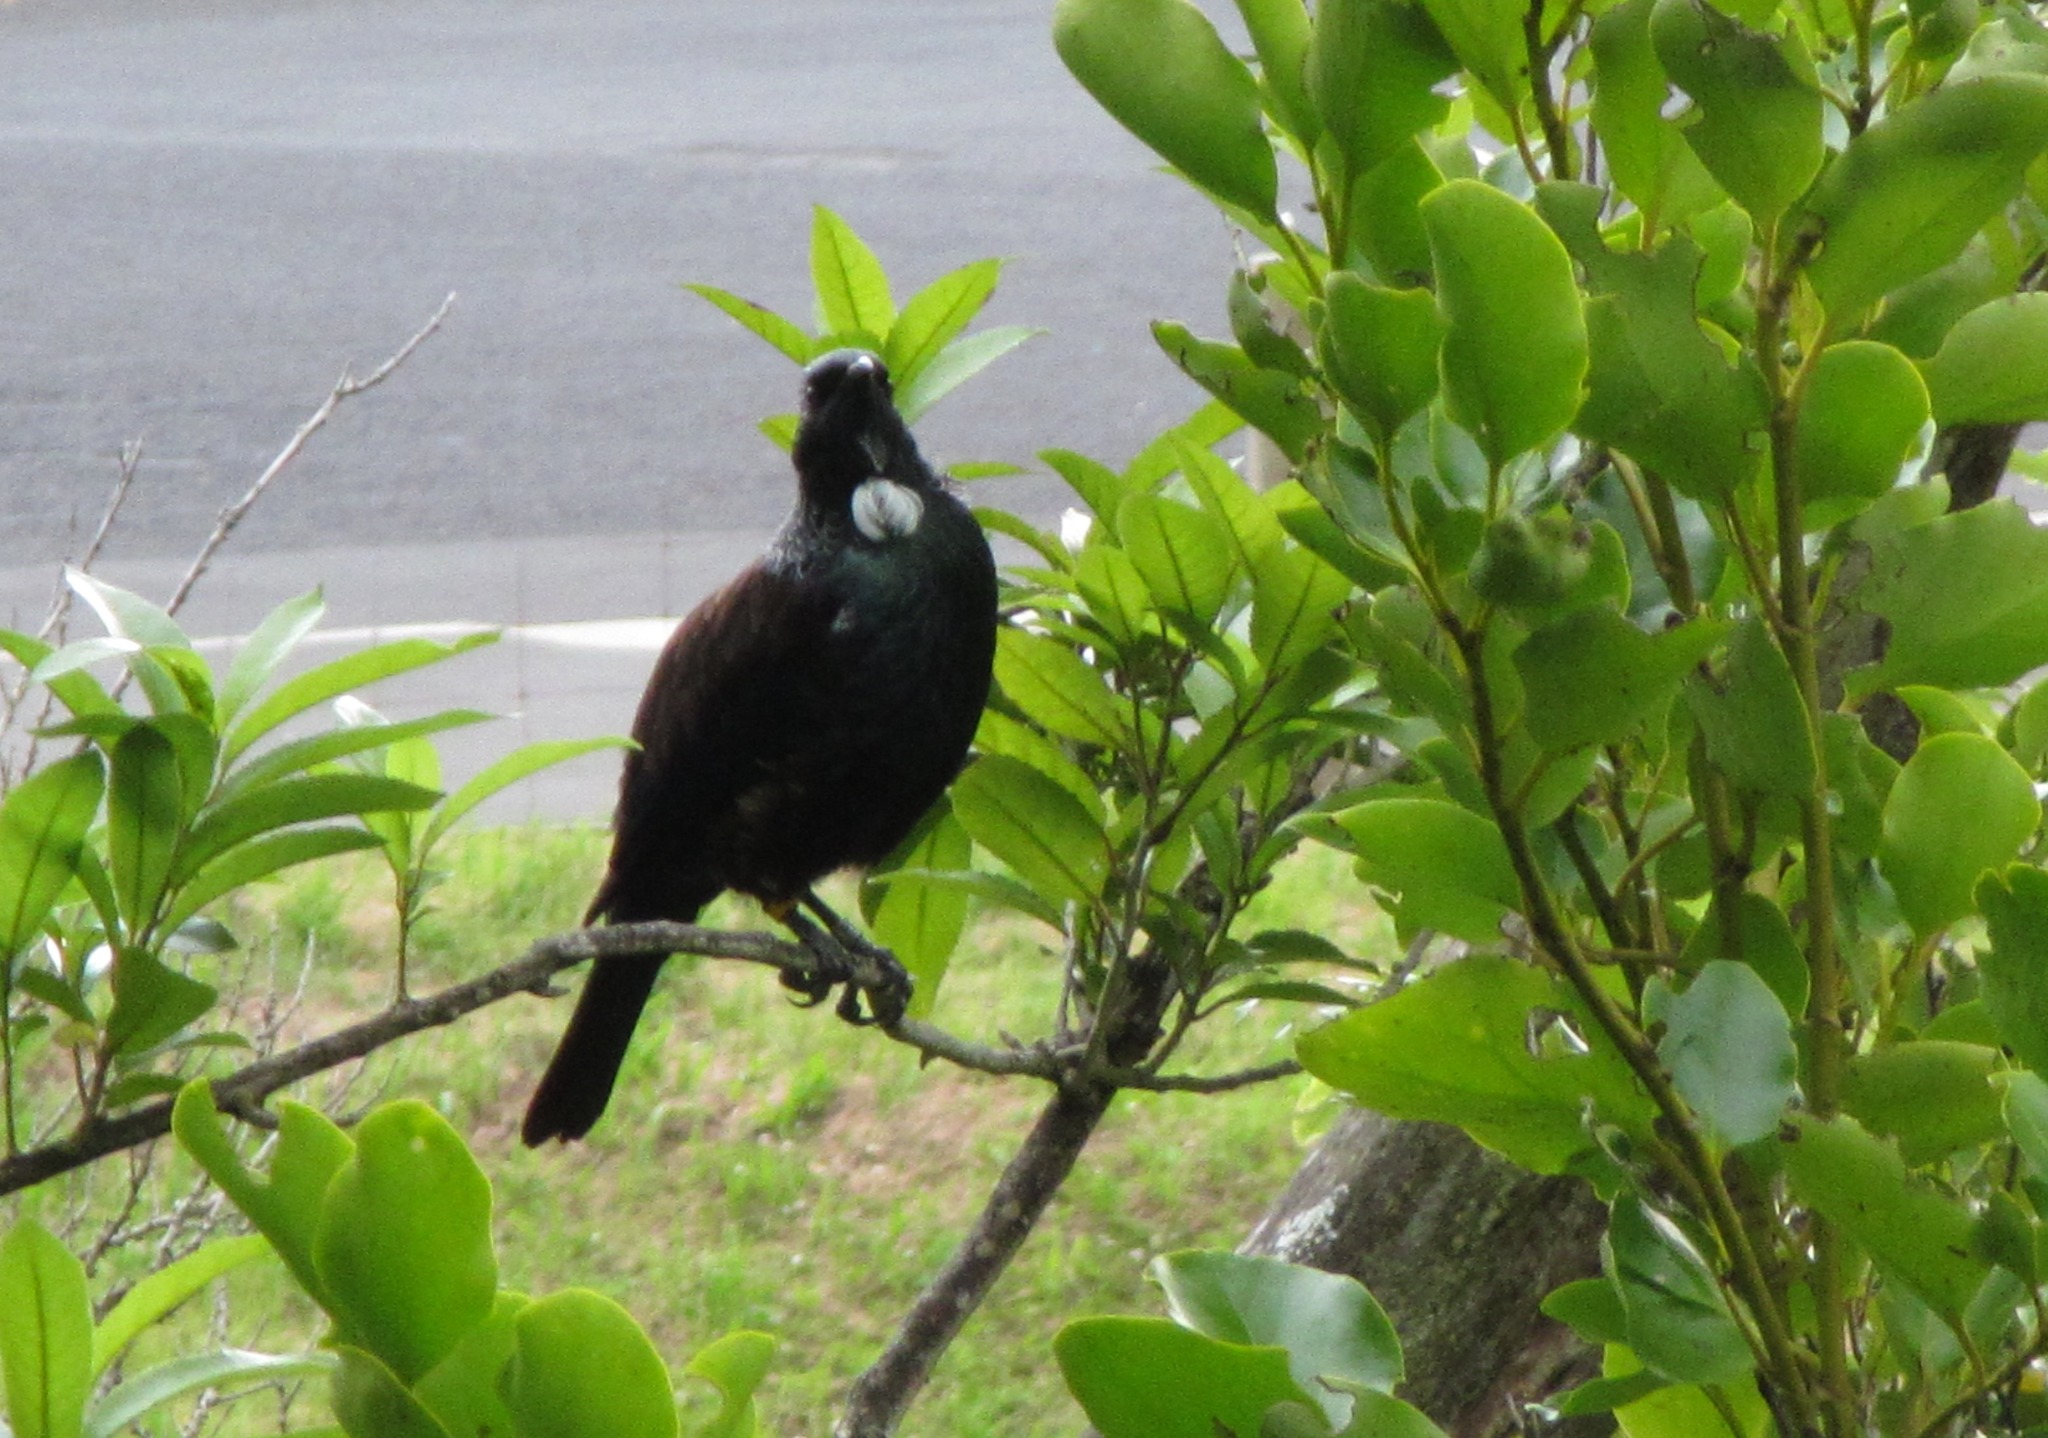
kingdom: Animalia
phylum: Chordata
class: Aves
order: Passeriformes
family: Meliphagidae
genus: Prosthemadera
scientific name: Prosthemadera novaeseelandiae
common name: Tui
